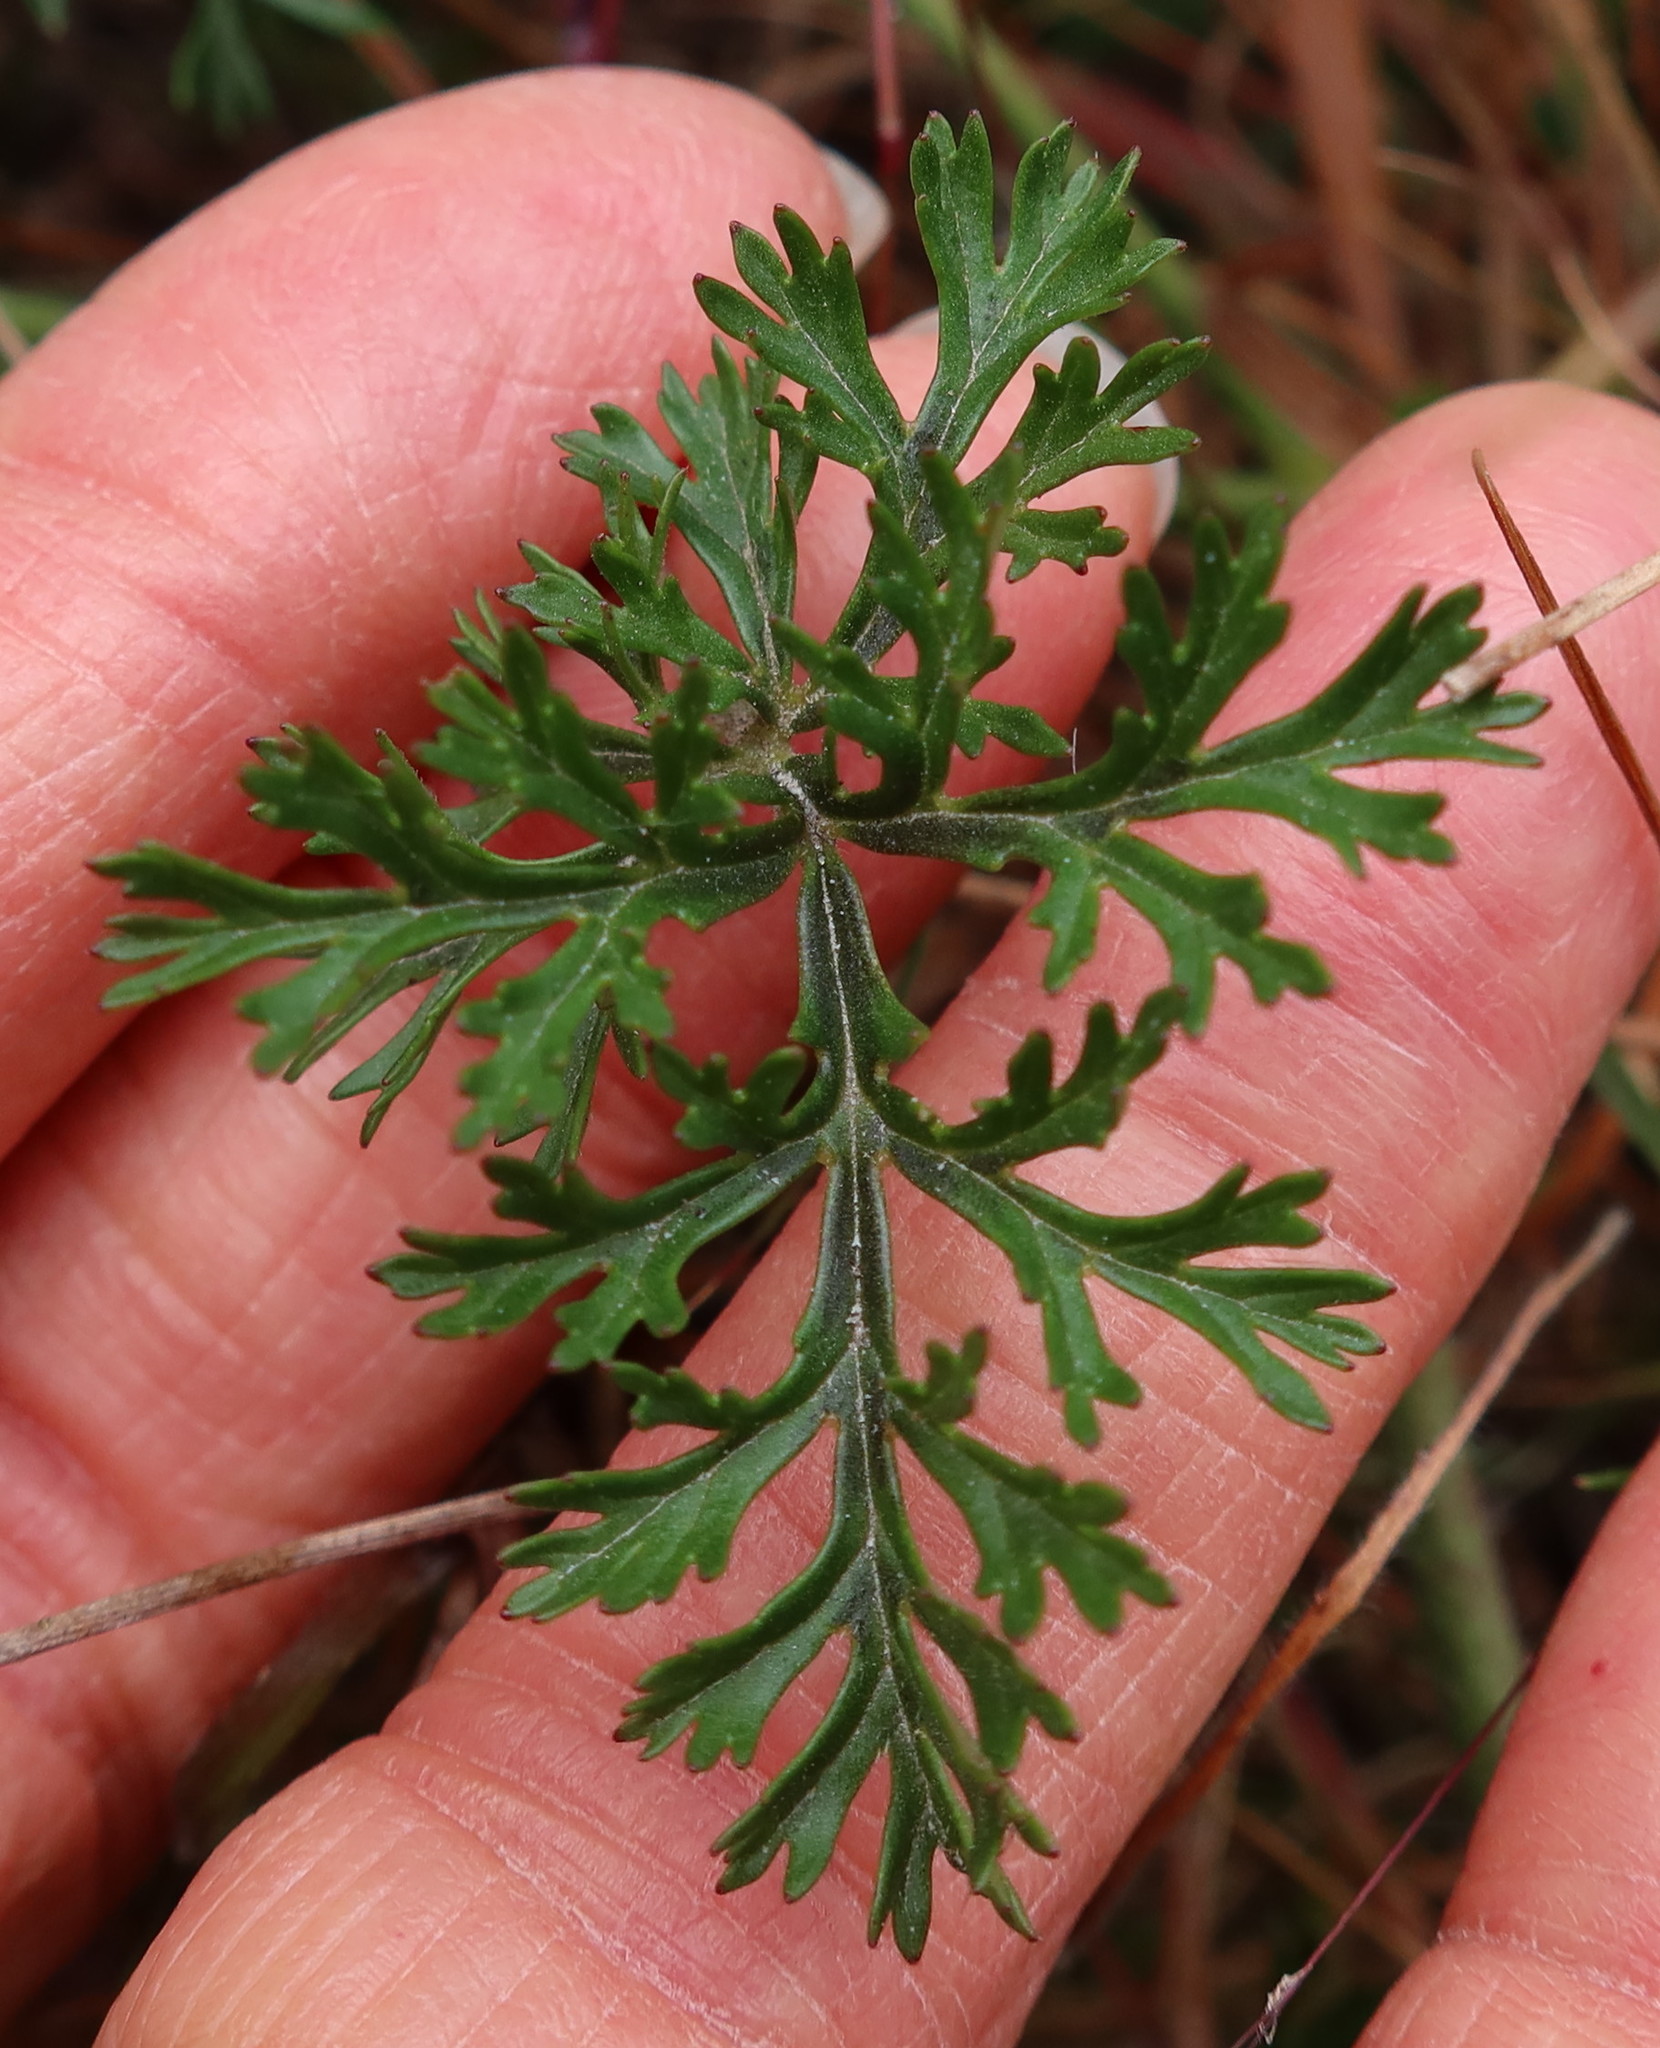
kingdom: Plantae
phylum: Tracheophyta
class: Magnoliopsida
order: Geraniales
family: Geraniaceae
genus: Pelargonium
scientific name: Pelargonium longicaule
